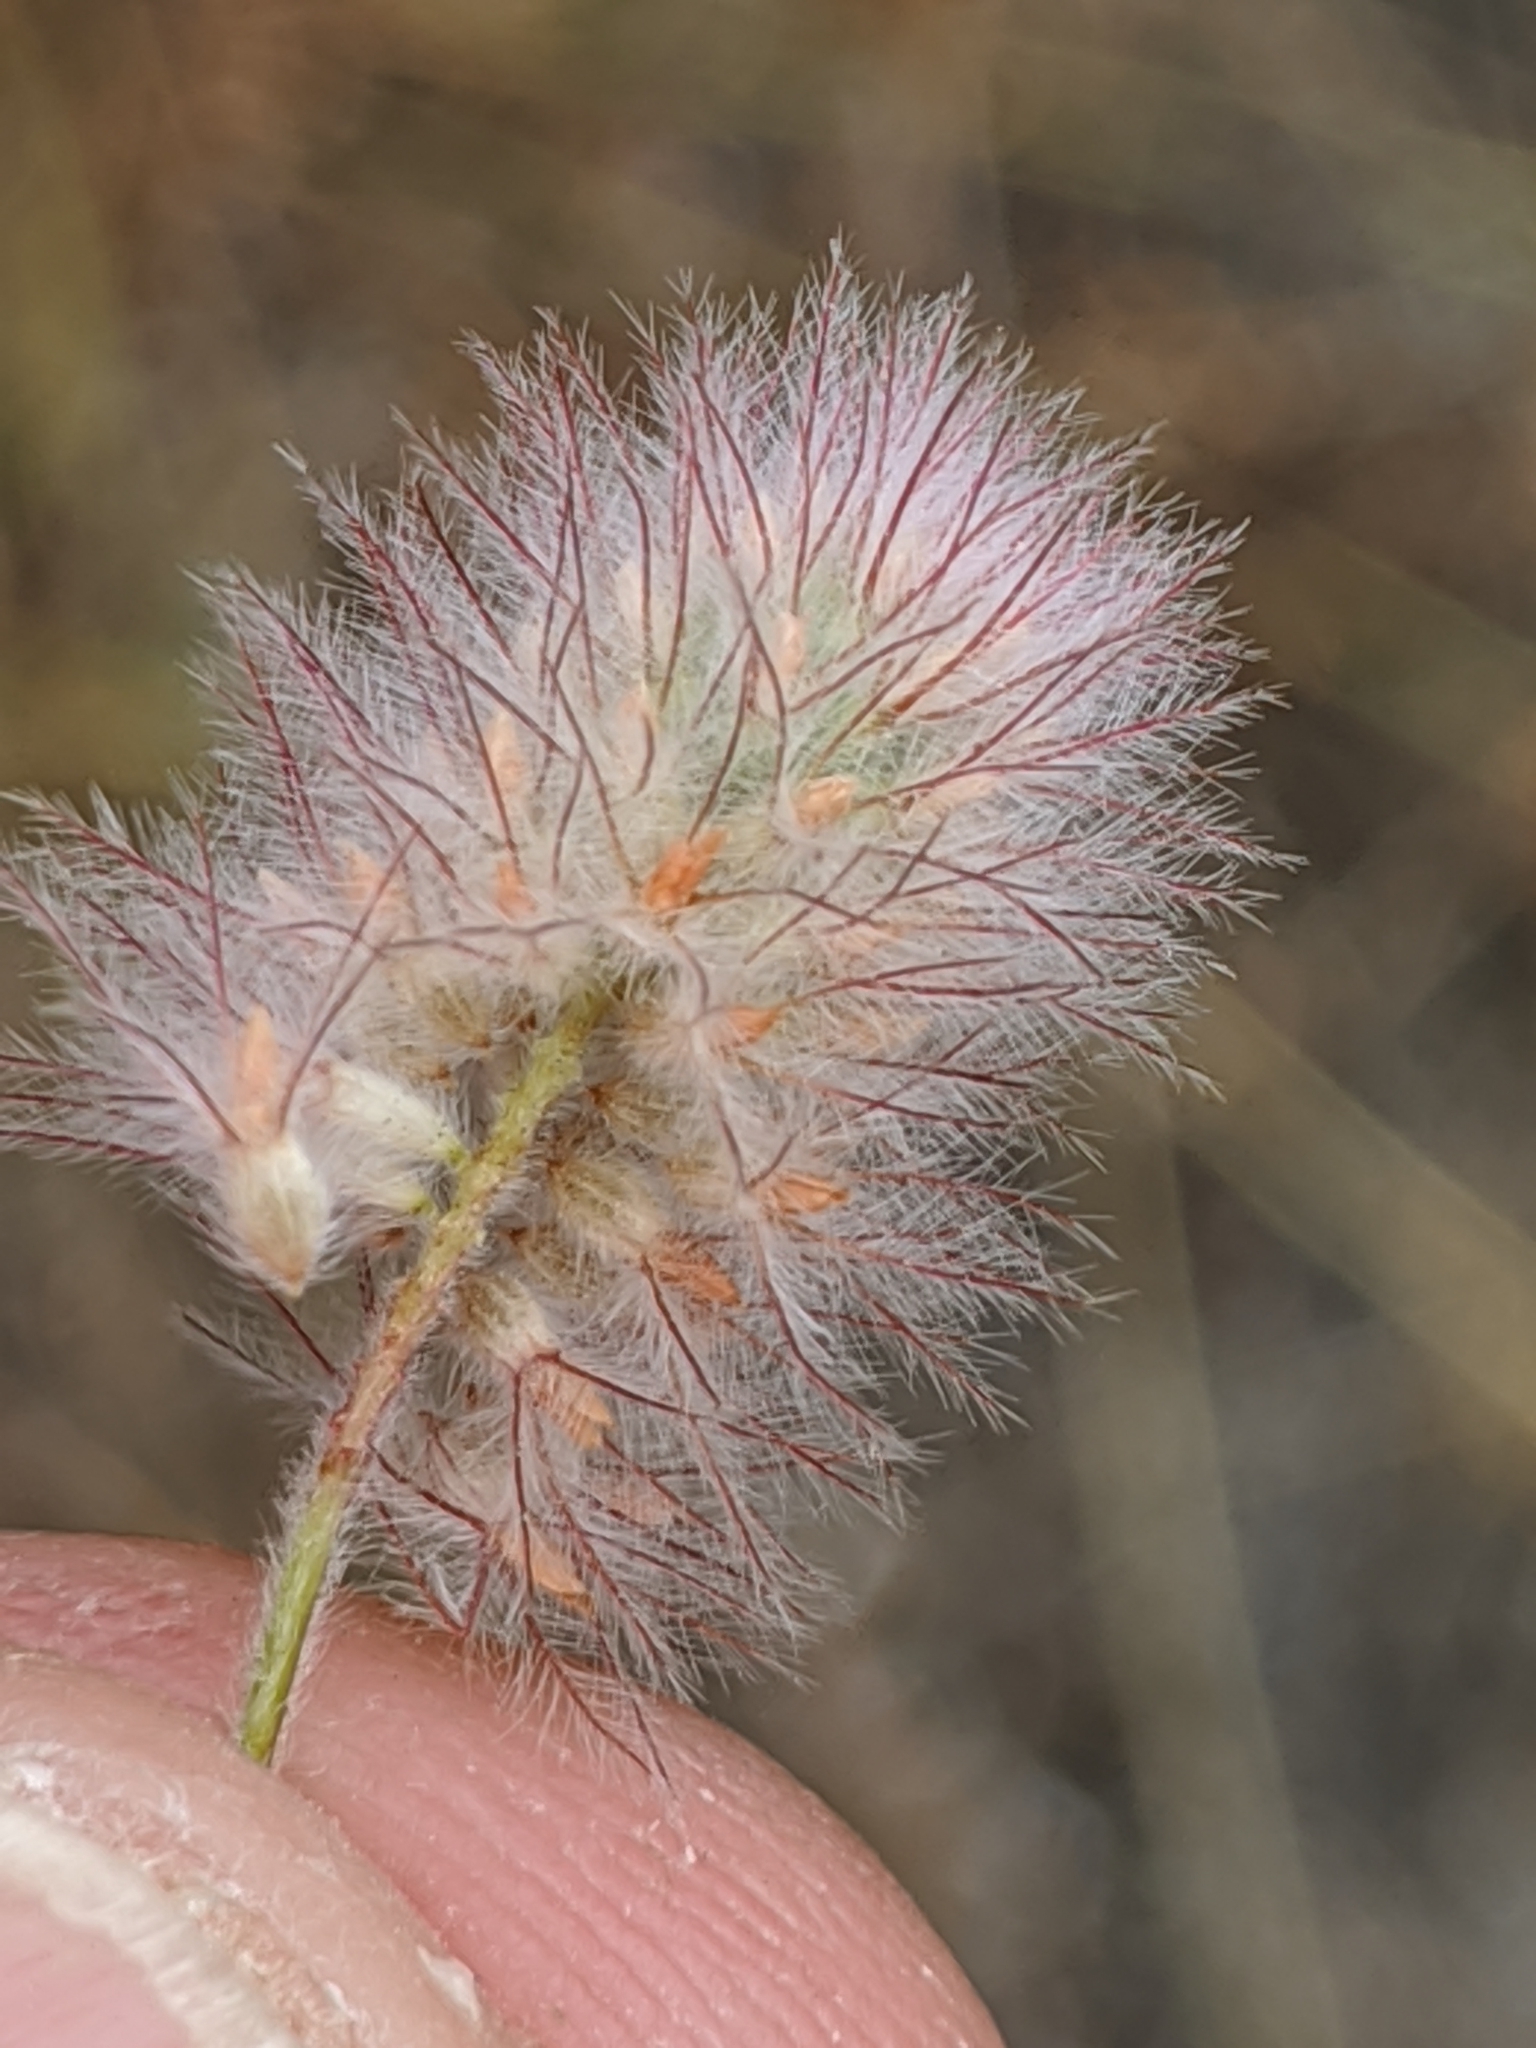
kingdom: Plantae
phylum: Tracheophyta
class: Magnoliopsida
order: Fabales
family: Fabaceae
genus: Trifolium
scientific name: Trifolium arvense
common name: Hare's-foot clover
